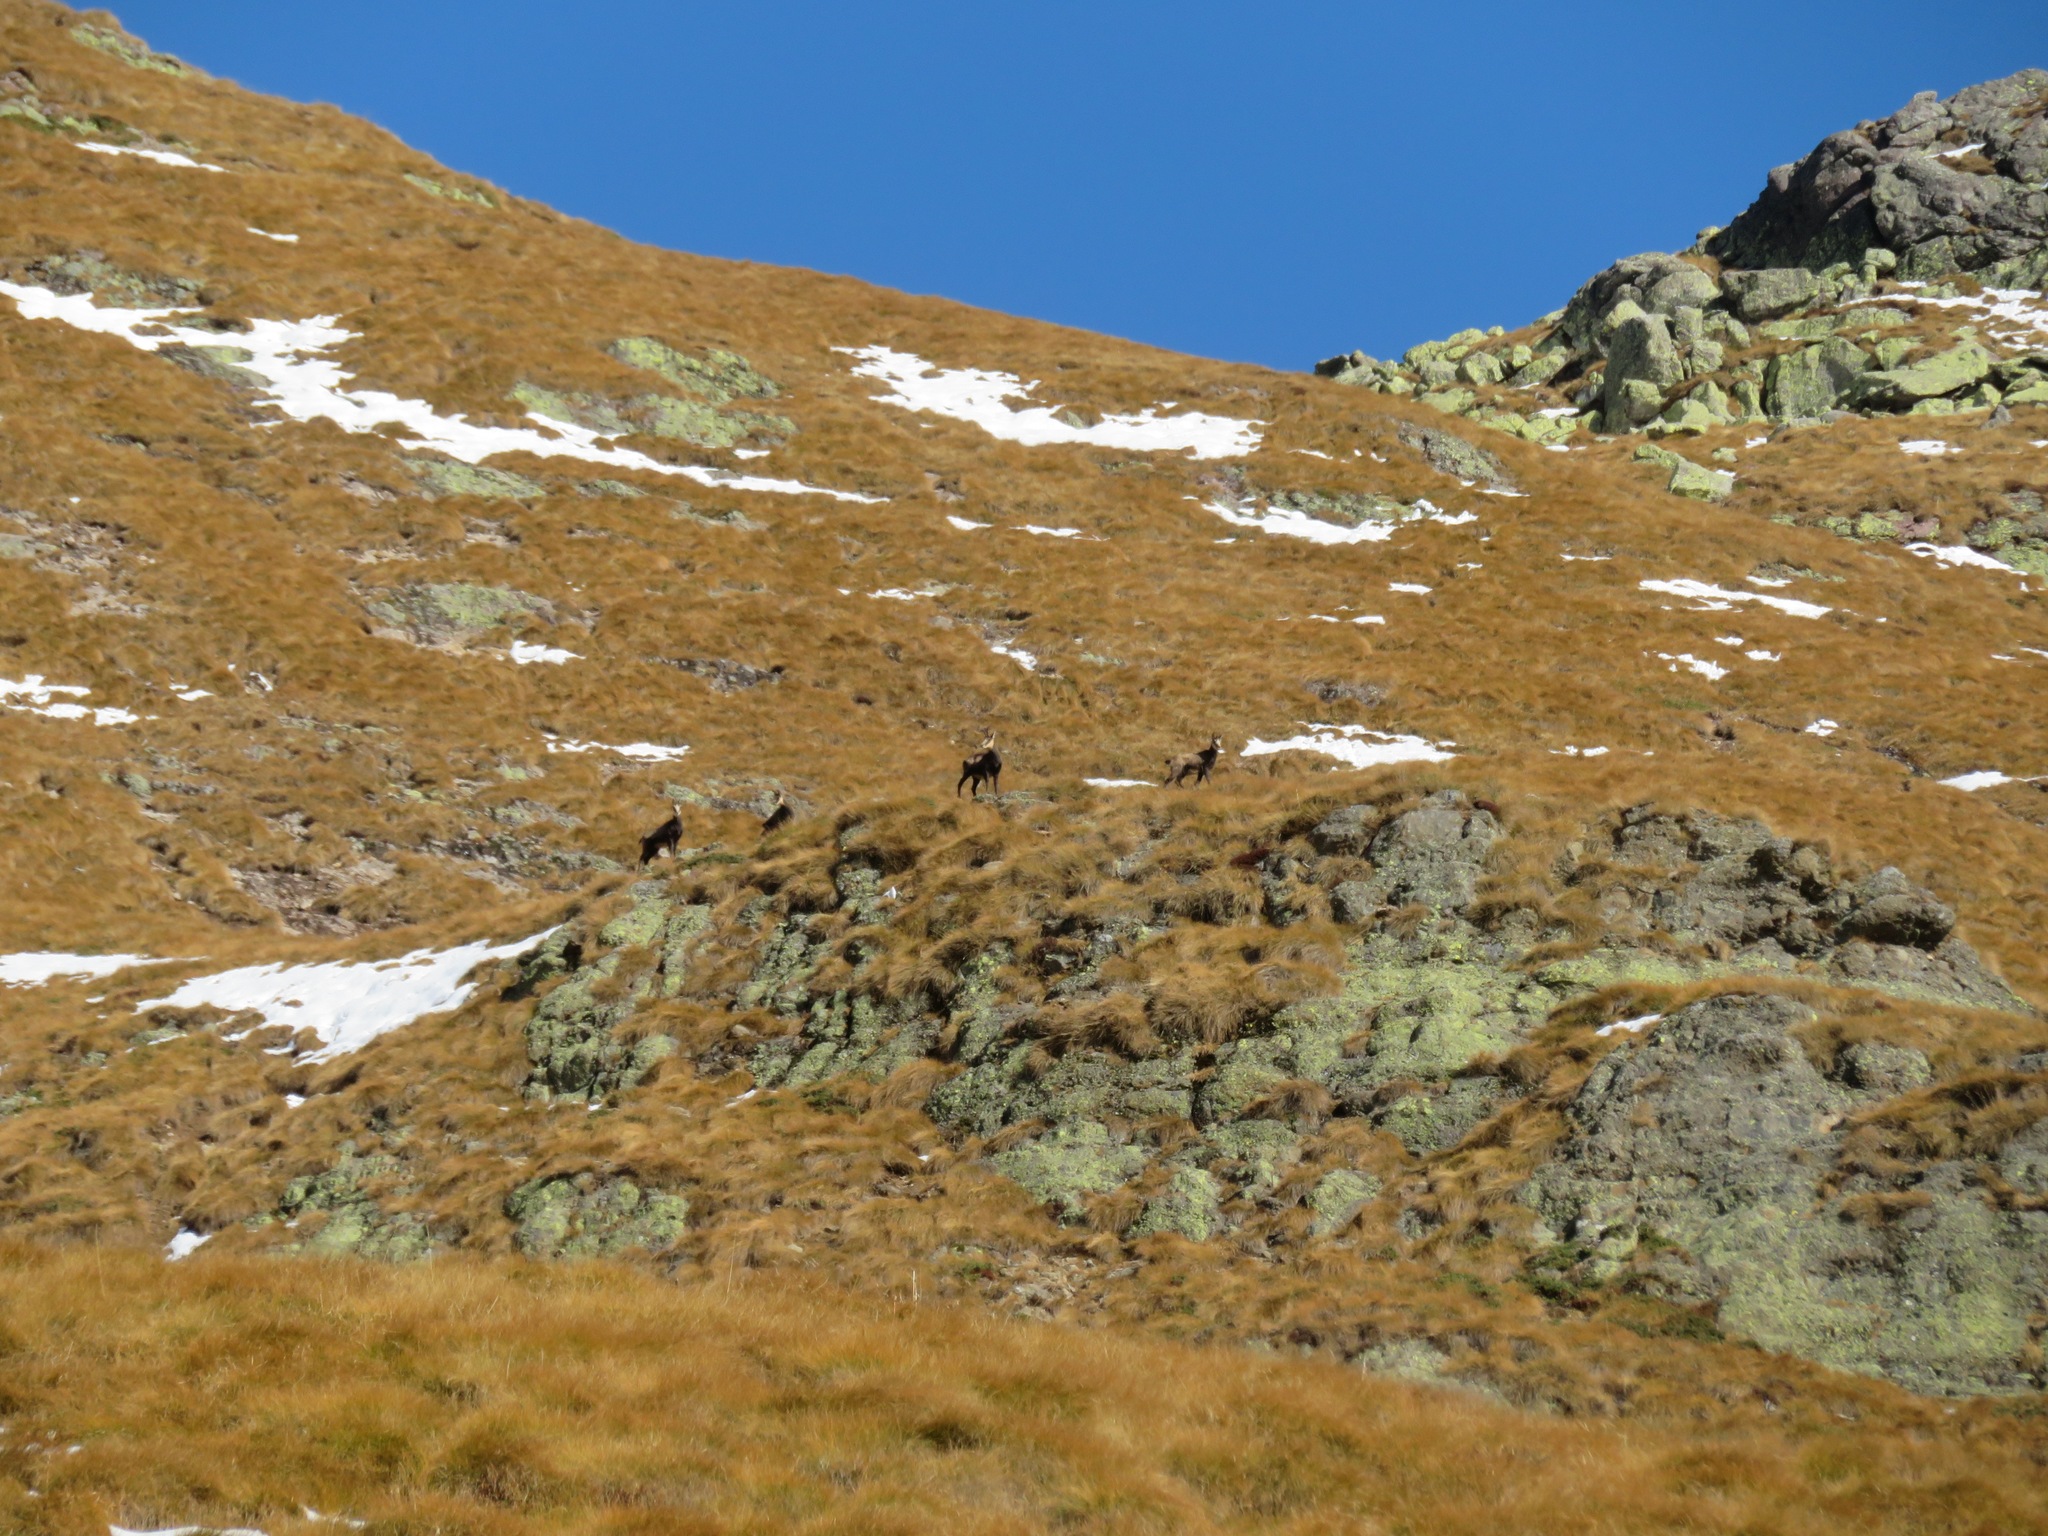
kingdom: Animalia
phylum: Chordata
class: Mammalia
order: Artiodactyla
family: Bovidae
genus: Rupicapra
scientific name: Rupicapra rupicapra
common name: Chamois
